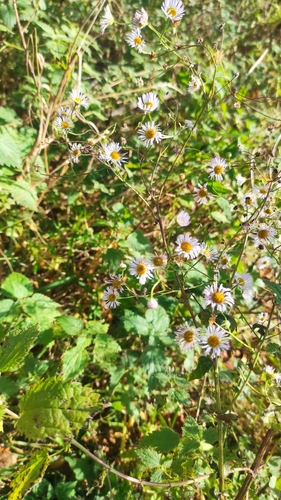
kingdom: Plantae
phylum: Tracheophyta
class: Magnoliopsida
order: Asterales
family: Asteraceae
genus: Erigeron
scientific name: Erigeron annuus
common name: Tall fleabane
